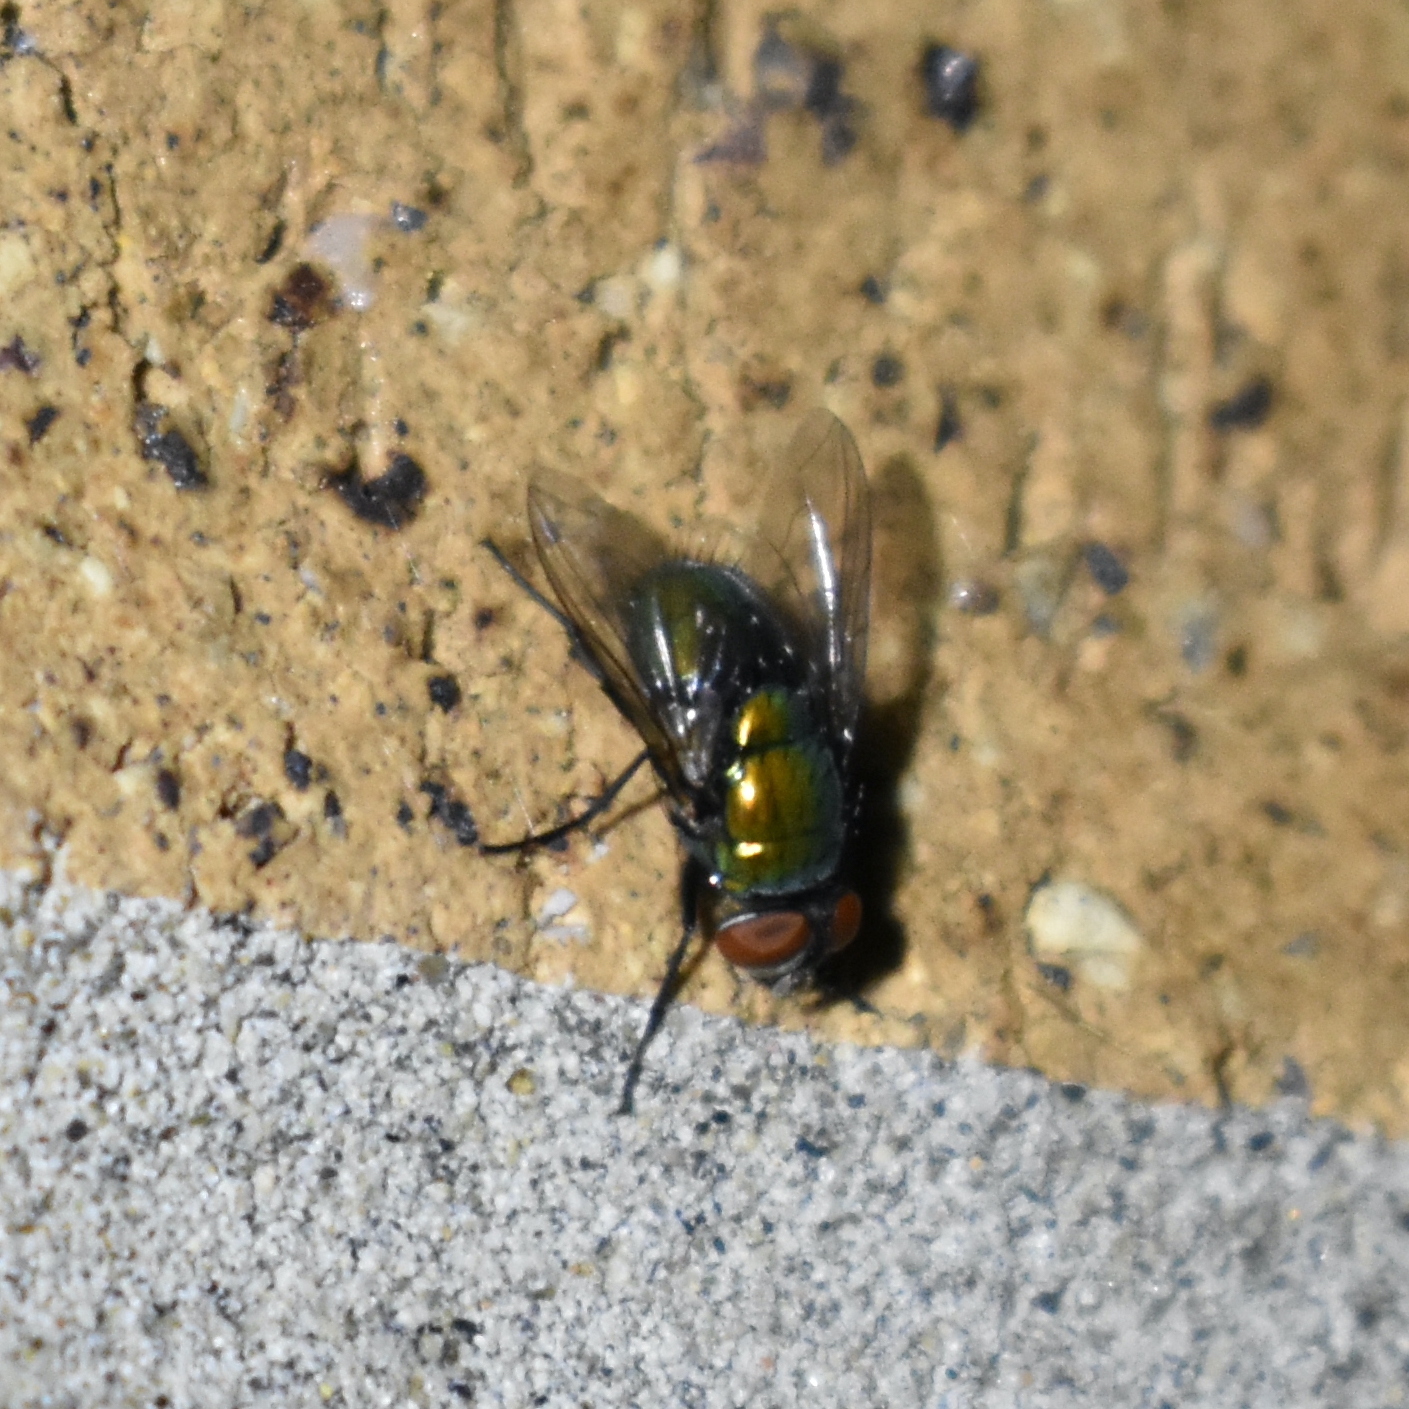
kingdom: Animalia
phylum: Arthropoda
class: Insecta
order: Diptera
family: Calliphoridae
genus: Lucilia
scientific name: Lucilia sericata
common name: Blow fly
